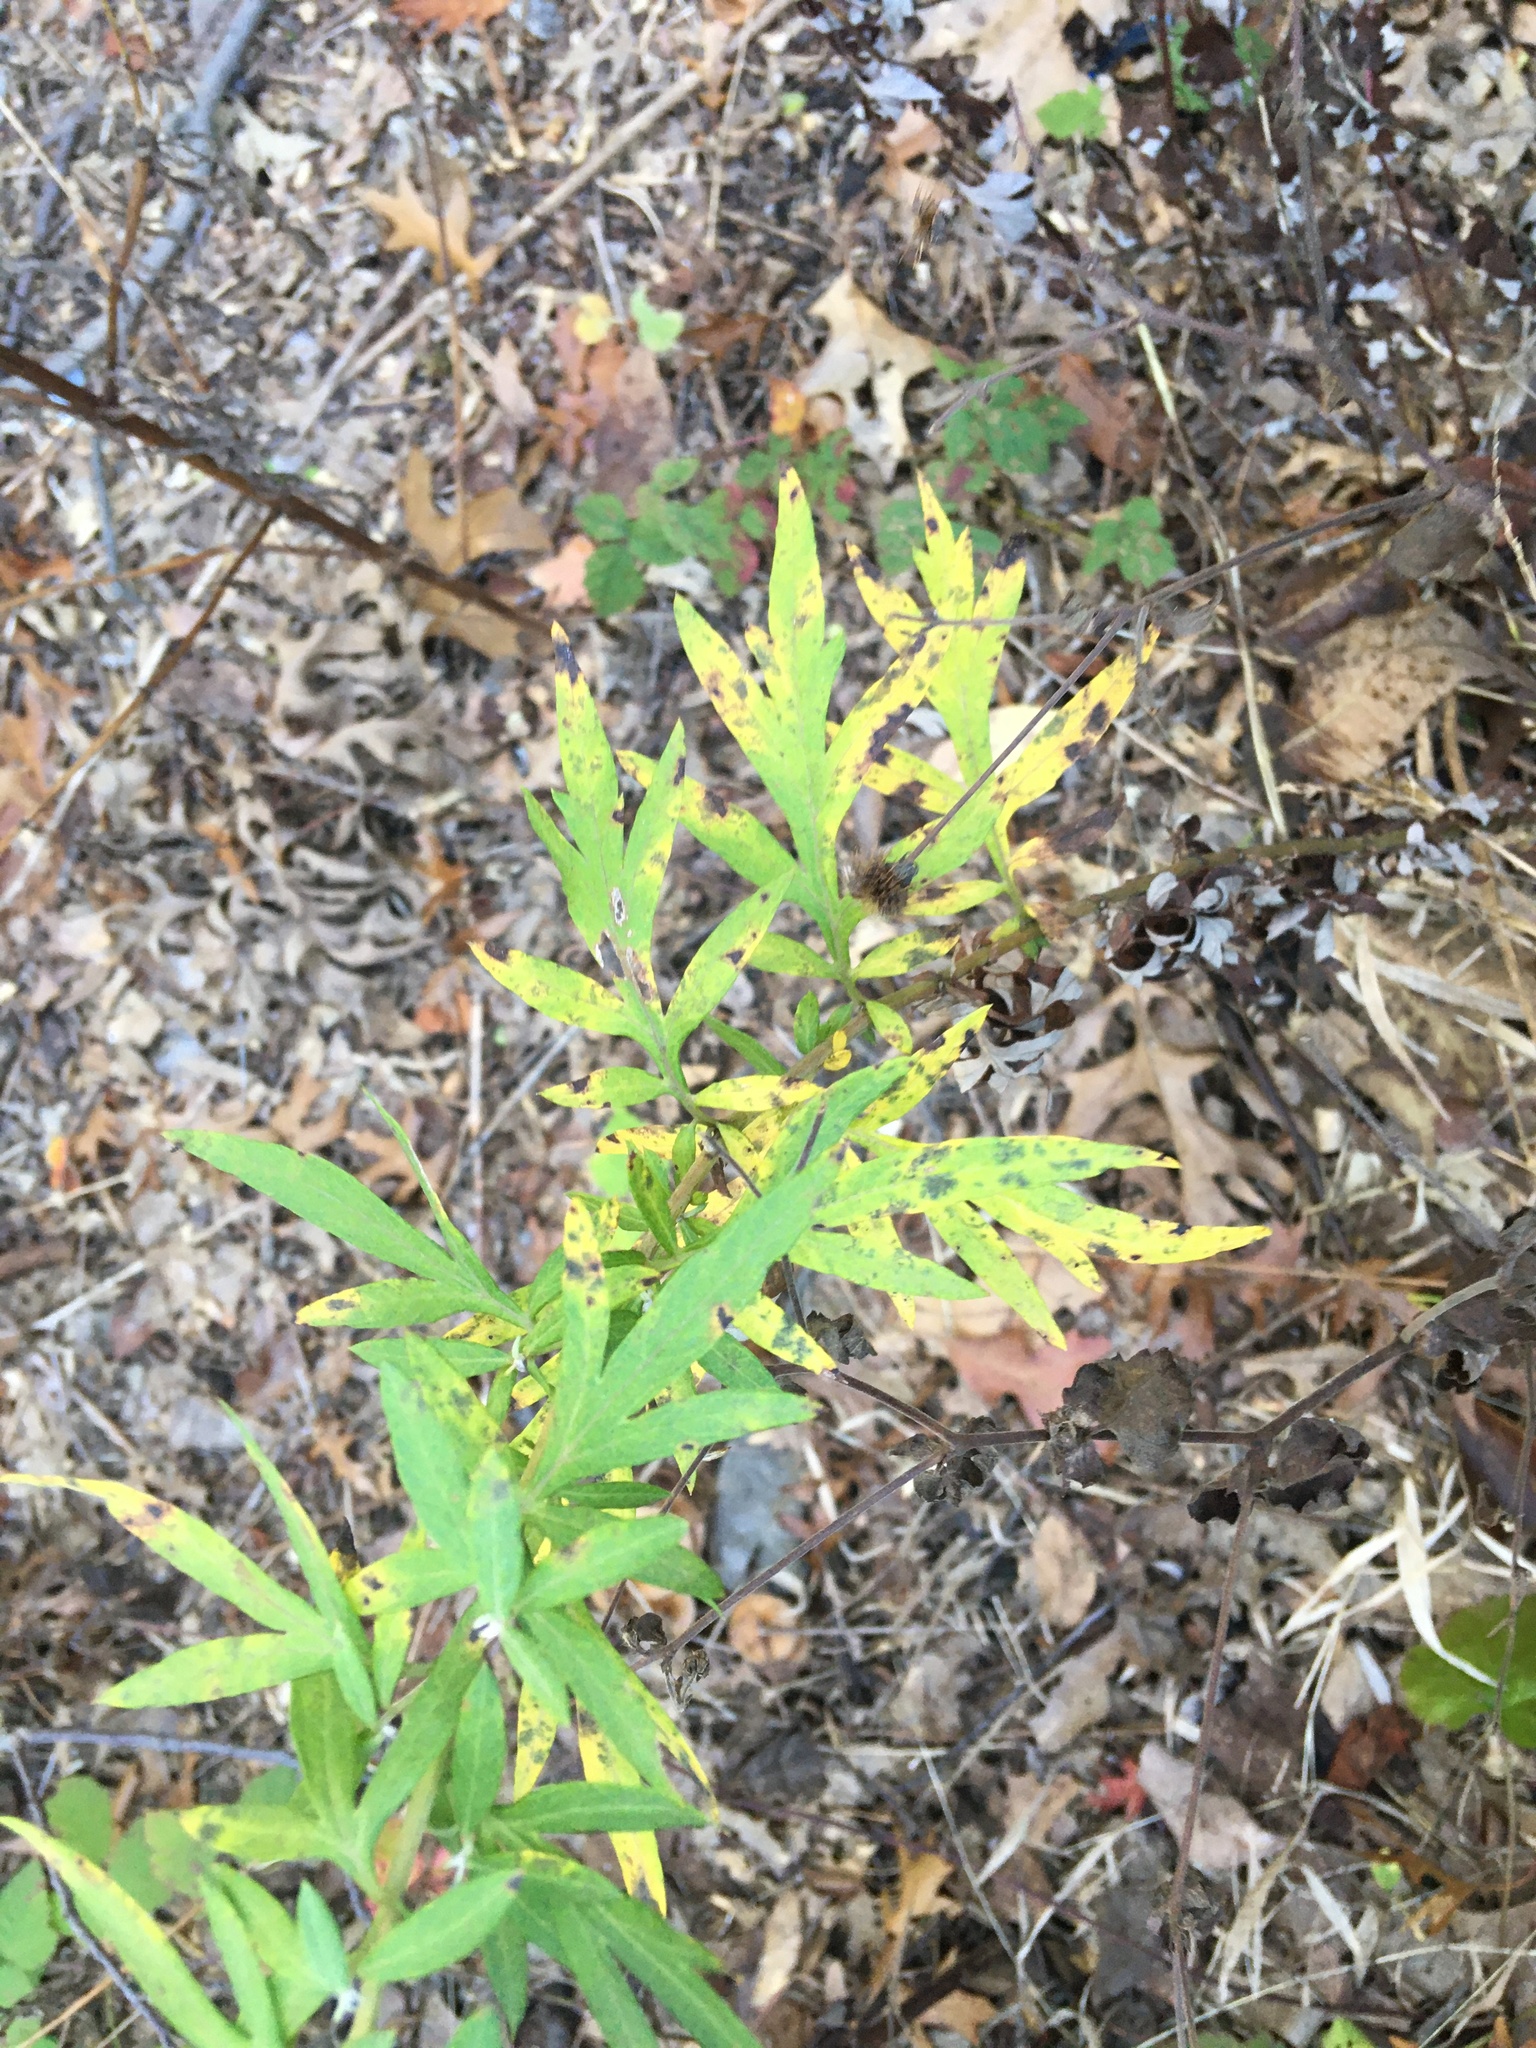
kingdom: Plantae
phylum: Tracheophyta
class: Magnoliopsida
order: Asterales
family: Asteraceae
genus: Artemisia
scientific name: Artemisia vulgaris
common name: Mugwort
